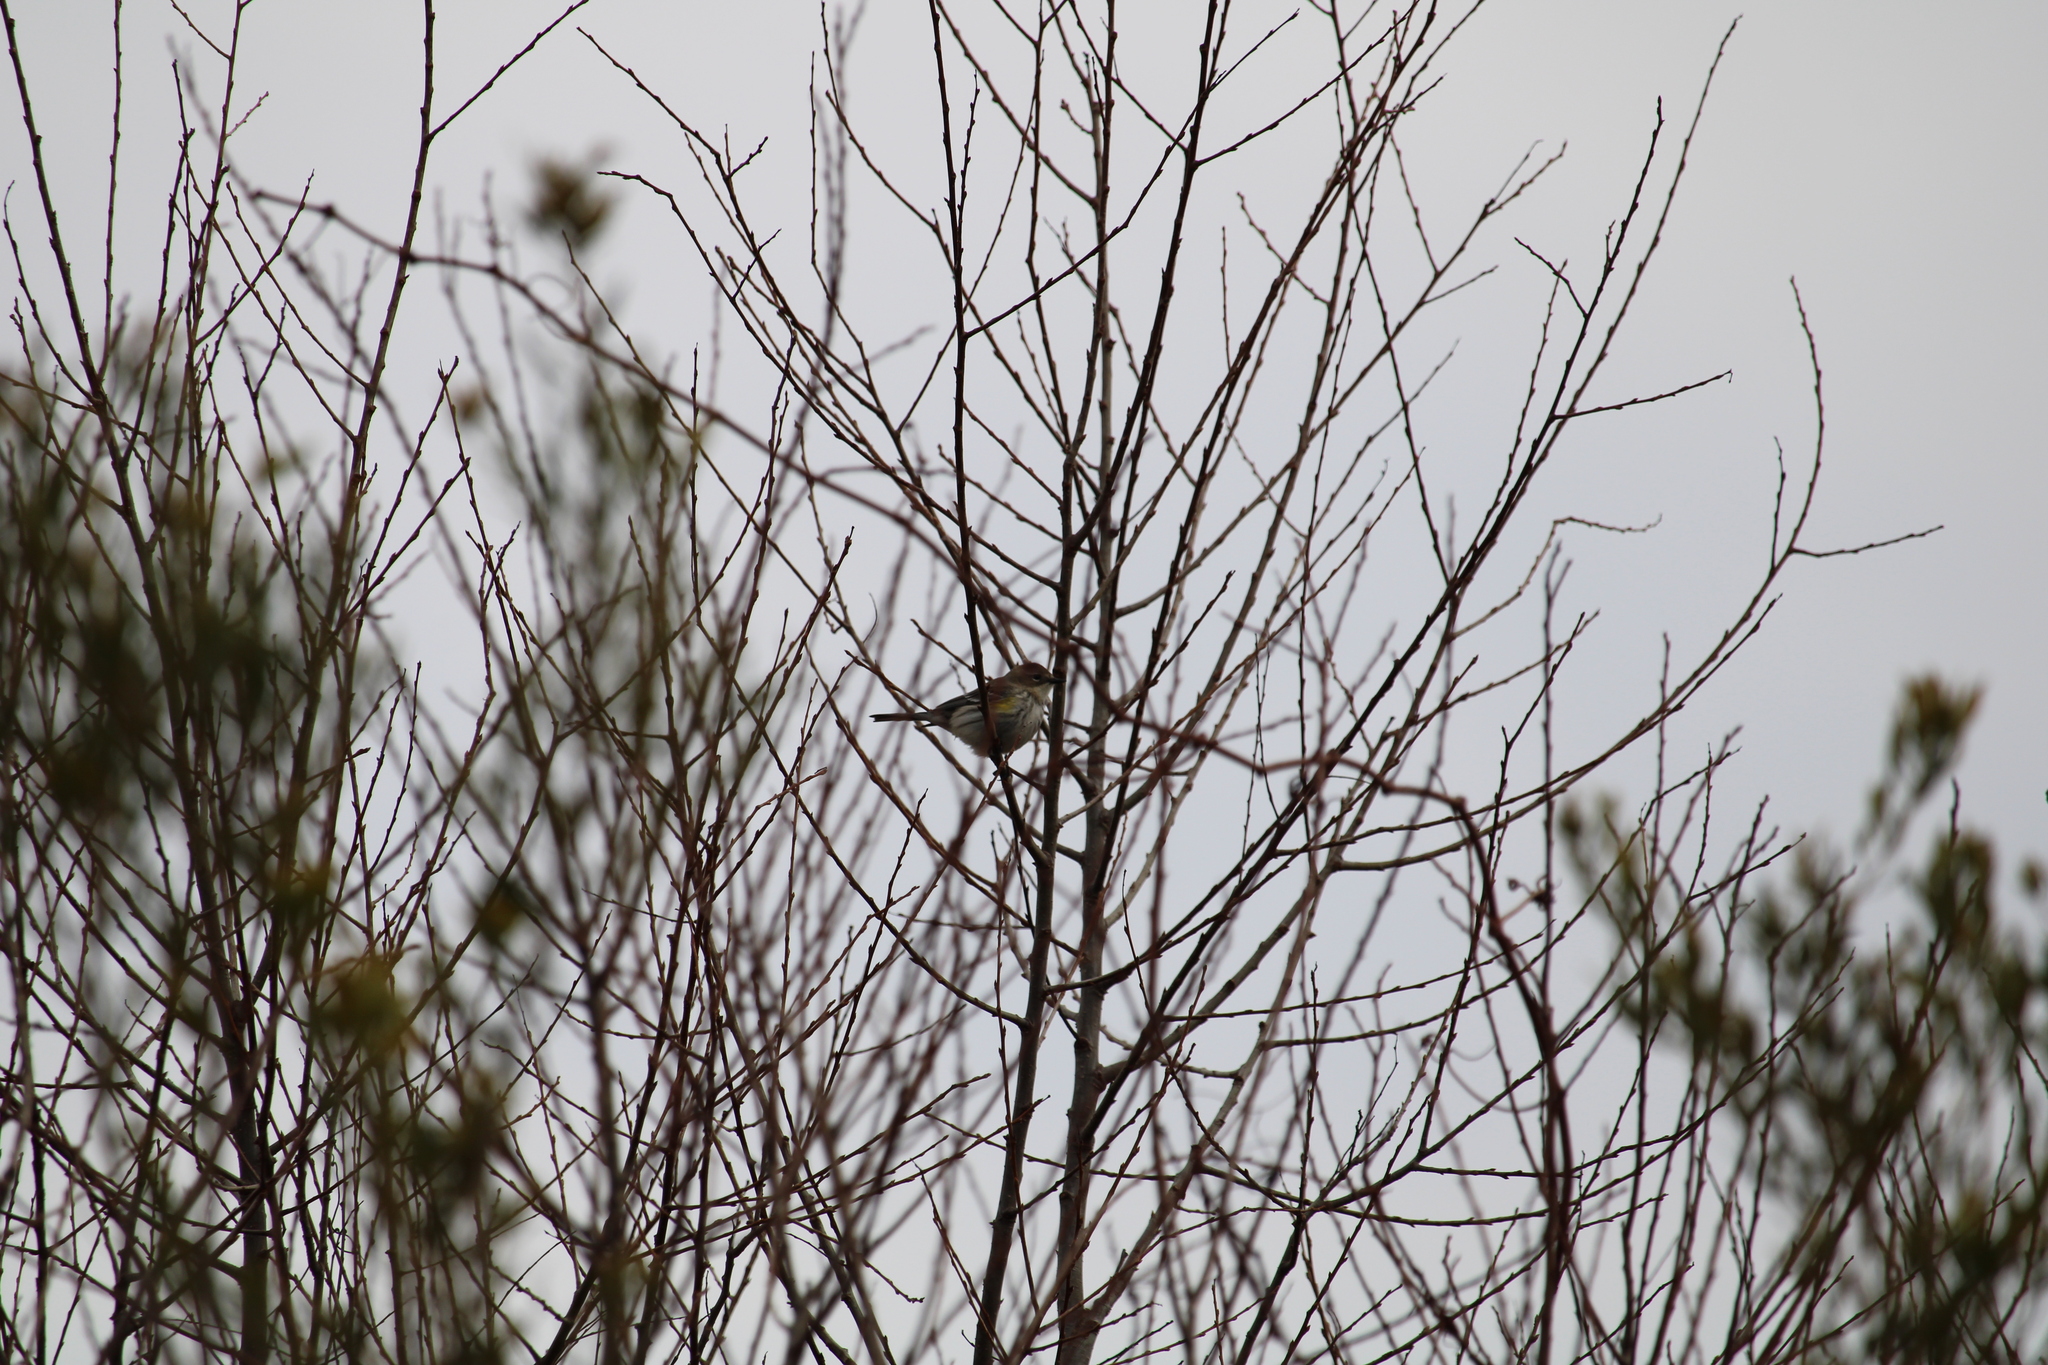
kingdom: Animalia
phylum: Chordata
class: Aves
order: Passeriformes
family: Parulidae
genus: Setophaga
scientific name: Setophaga coronata
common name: Myrtle warbler
